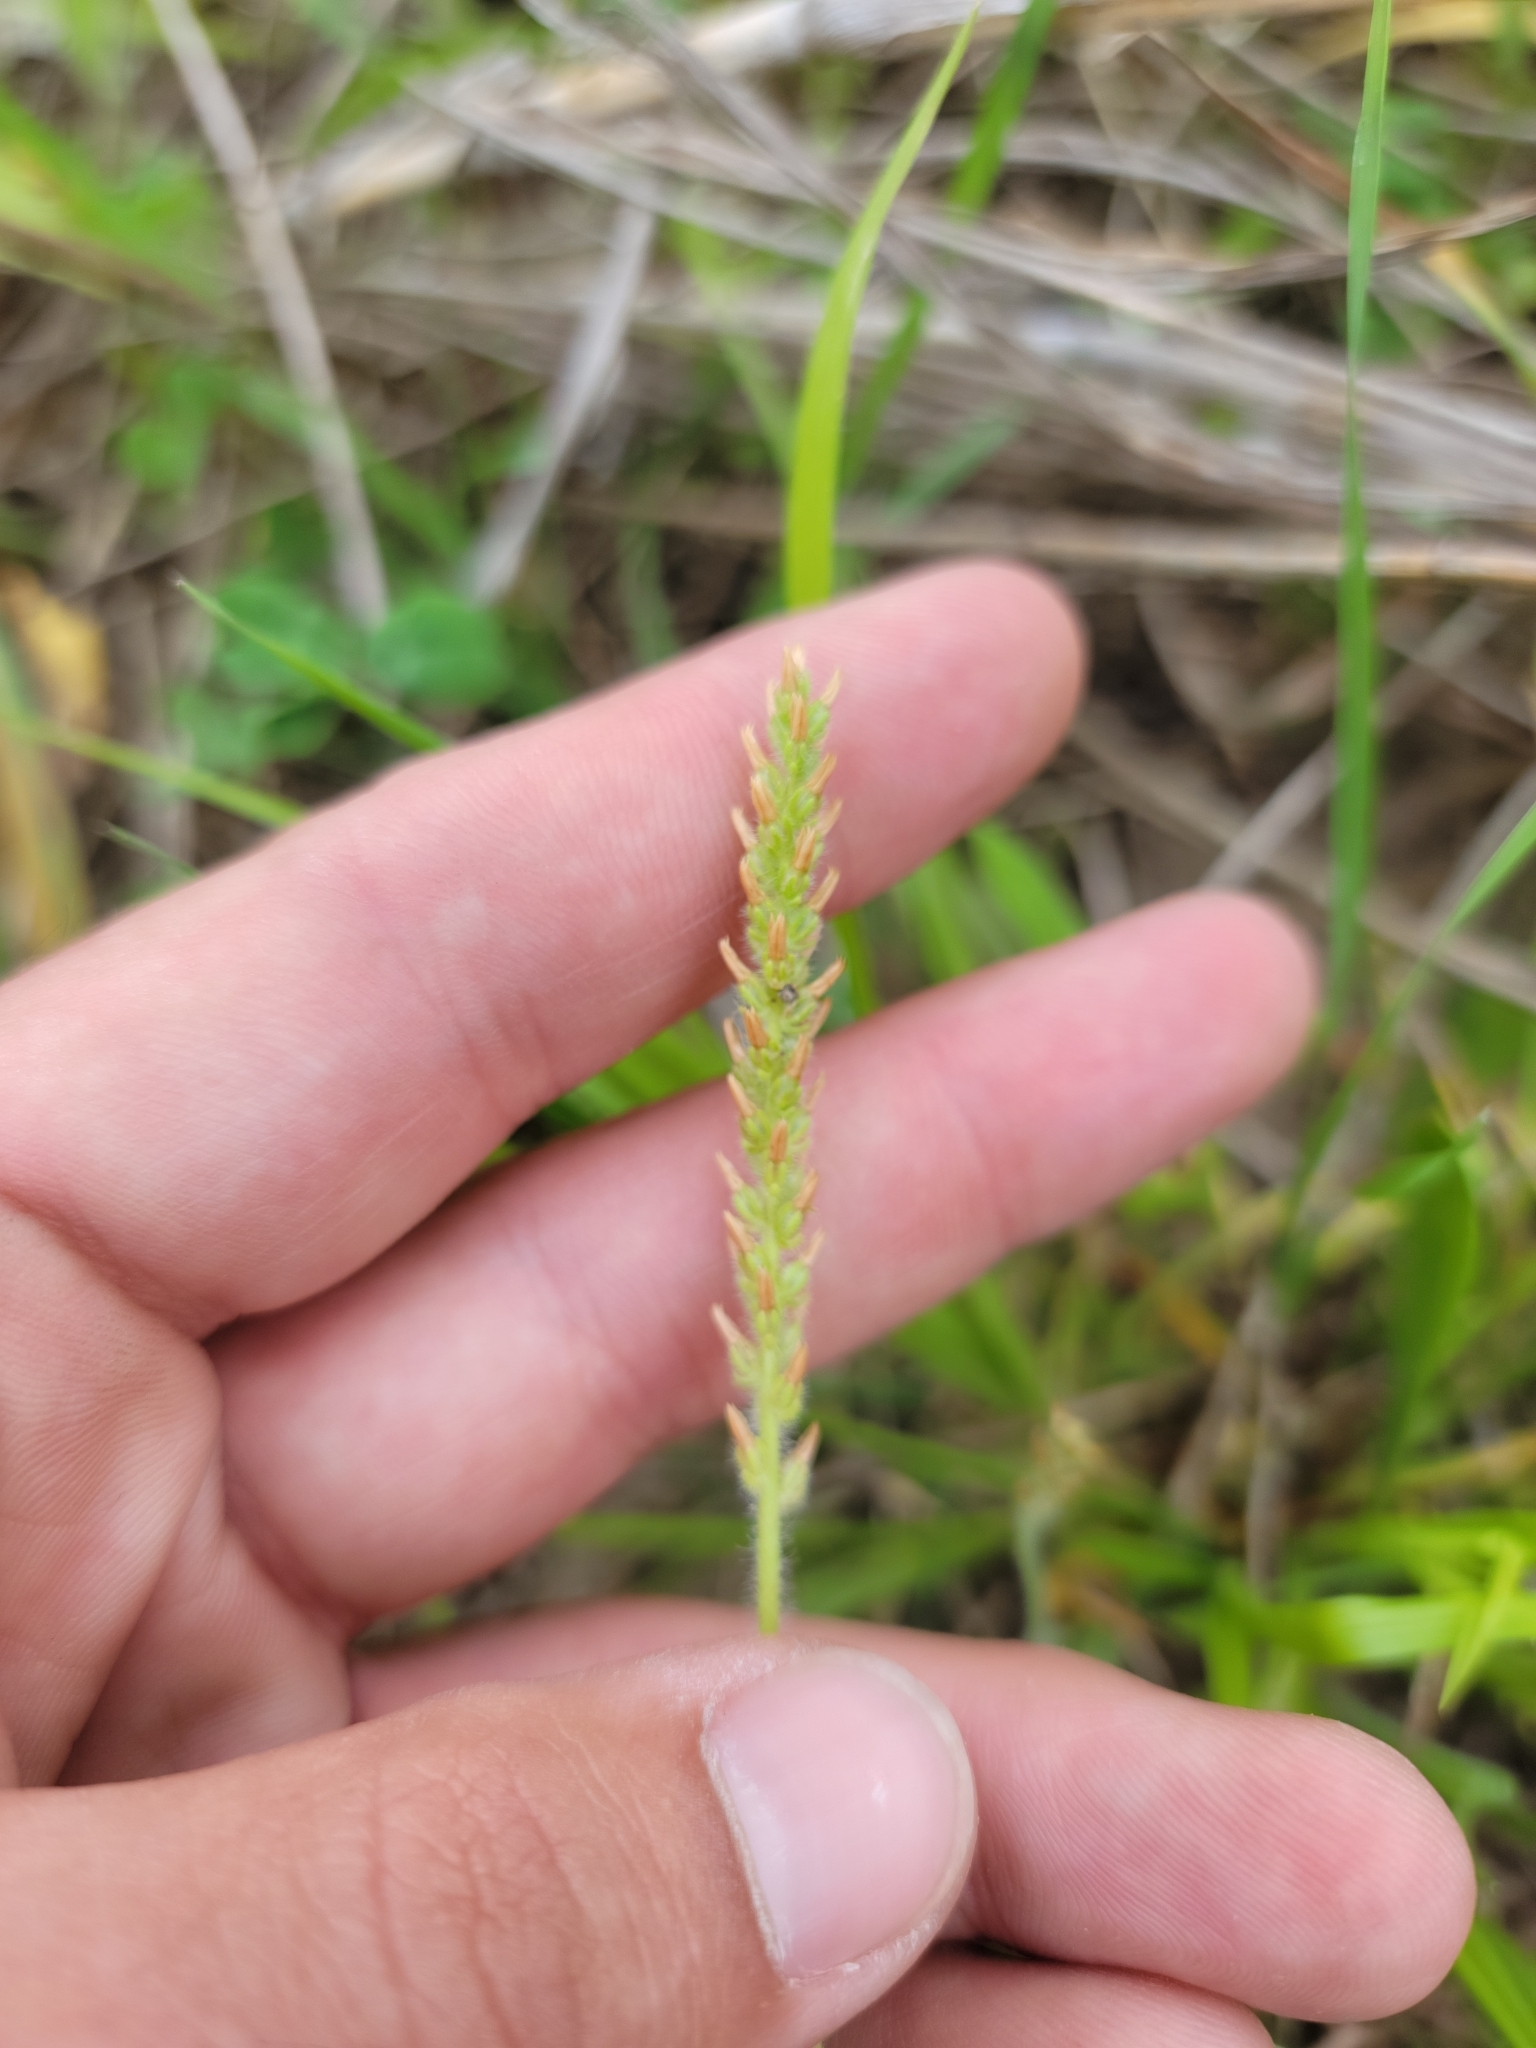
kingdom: Plantae
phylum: Tracheophyta
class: Magnoliopsida
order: Lamiales
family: Plantaginaceae
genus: Plantago
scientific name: Plantago virginica
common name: Hoary plantain
